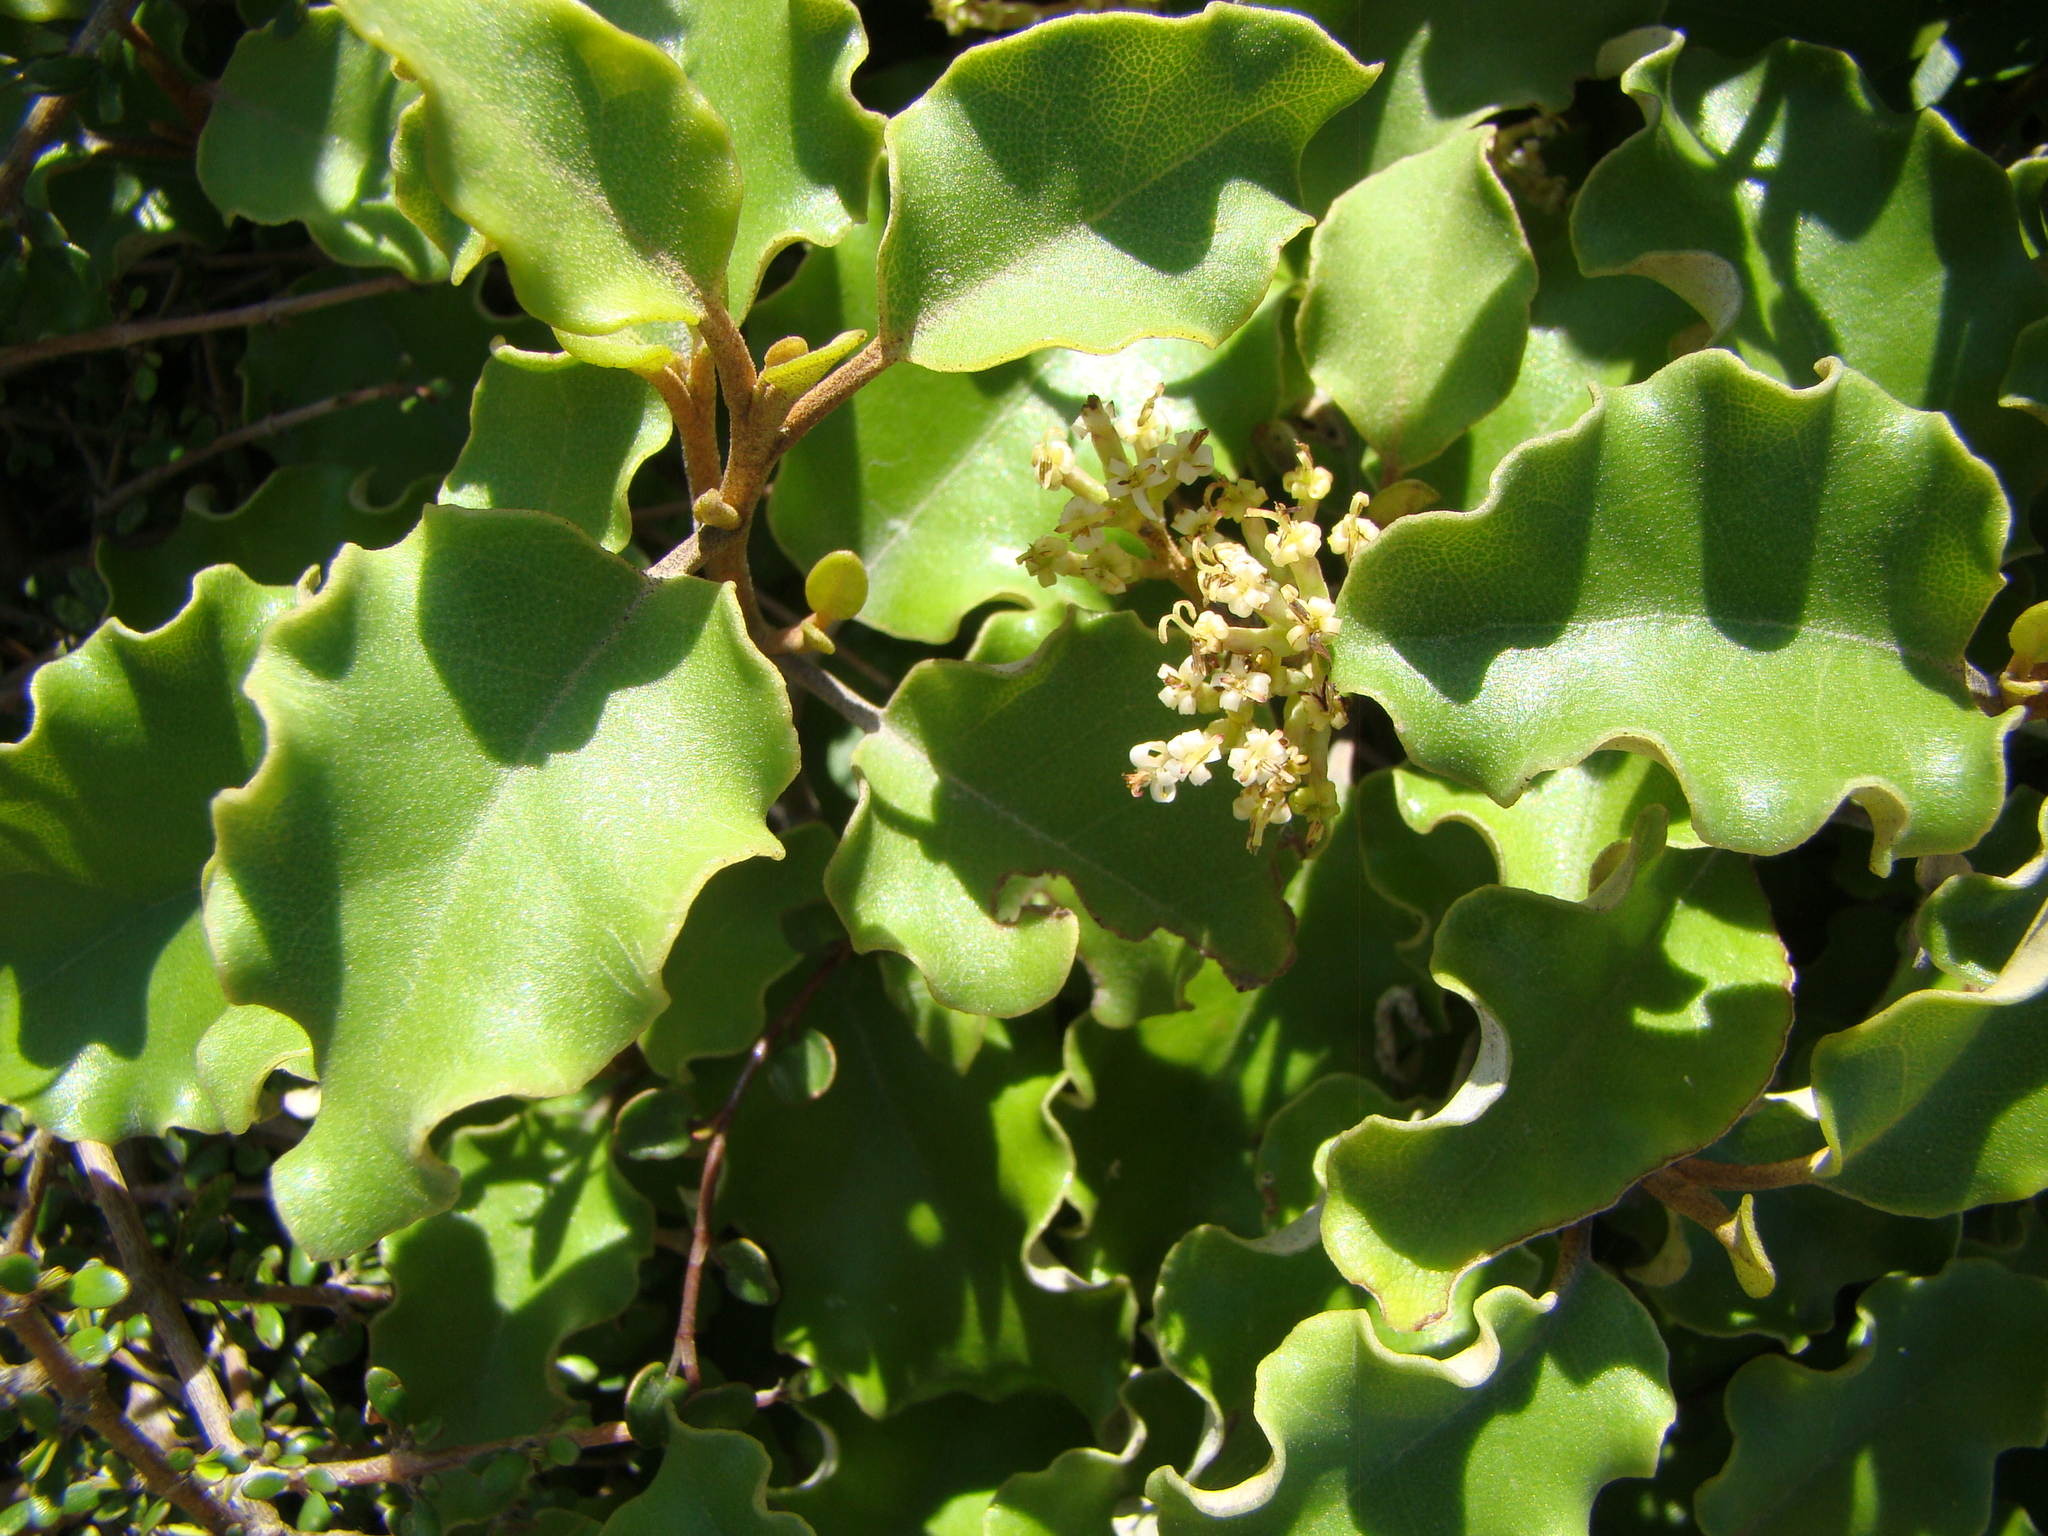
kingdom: Plantae
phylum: Tracheophyta
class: Magnoliopsida
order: Asterales
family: Asteraceae
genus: Olearia
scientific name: Olearia paniculata
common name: Akiraho
